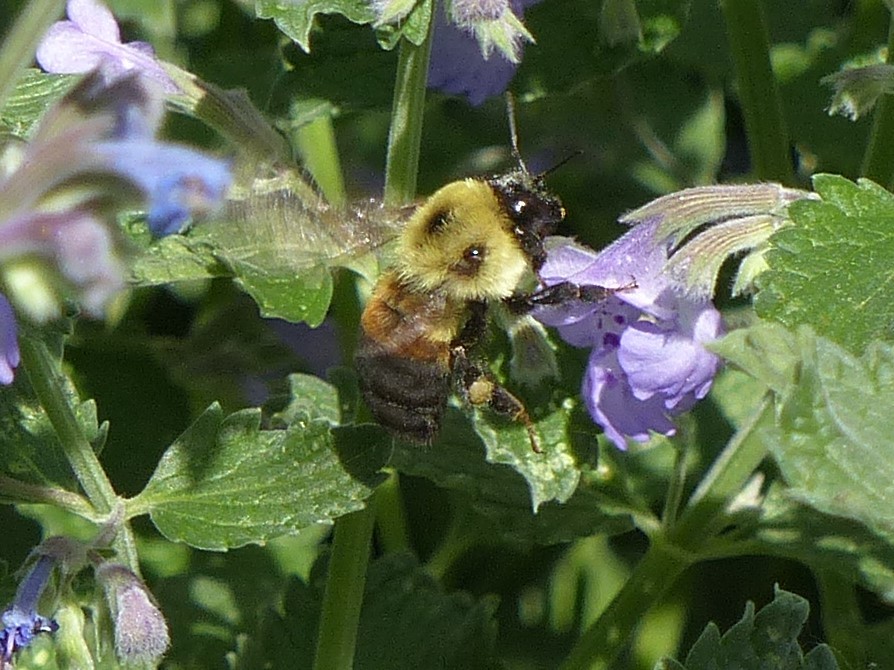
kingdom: Animalia
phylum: Arthropoda
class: Insecta
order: Hymenoptera
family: Apidae
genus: Bombus
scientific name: Bombus griseocollis
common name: Brown-belted bumble bee
